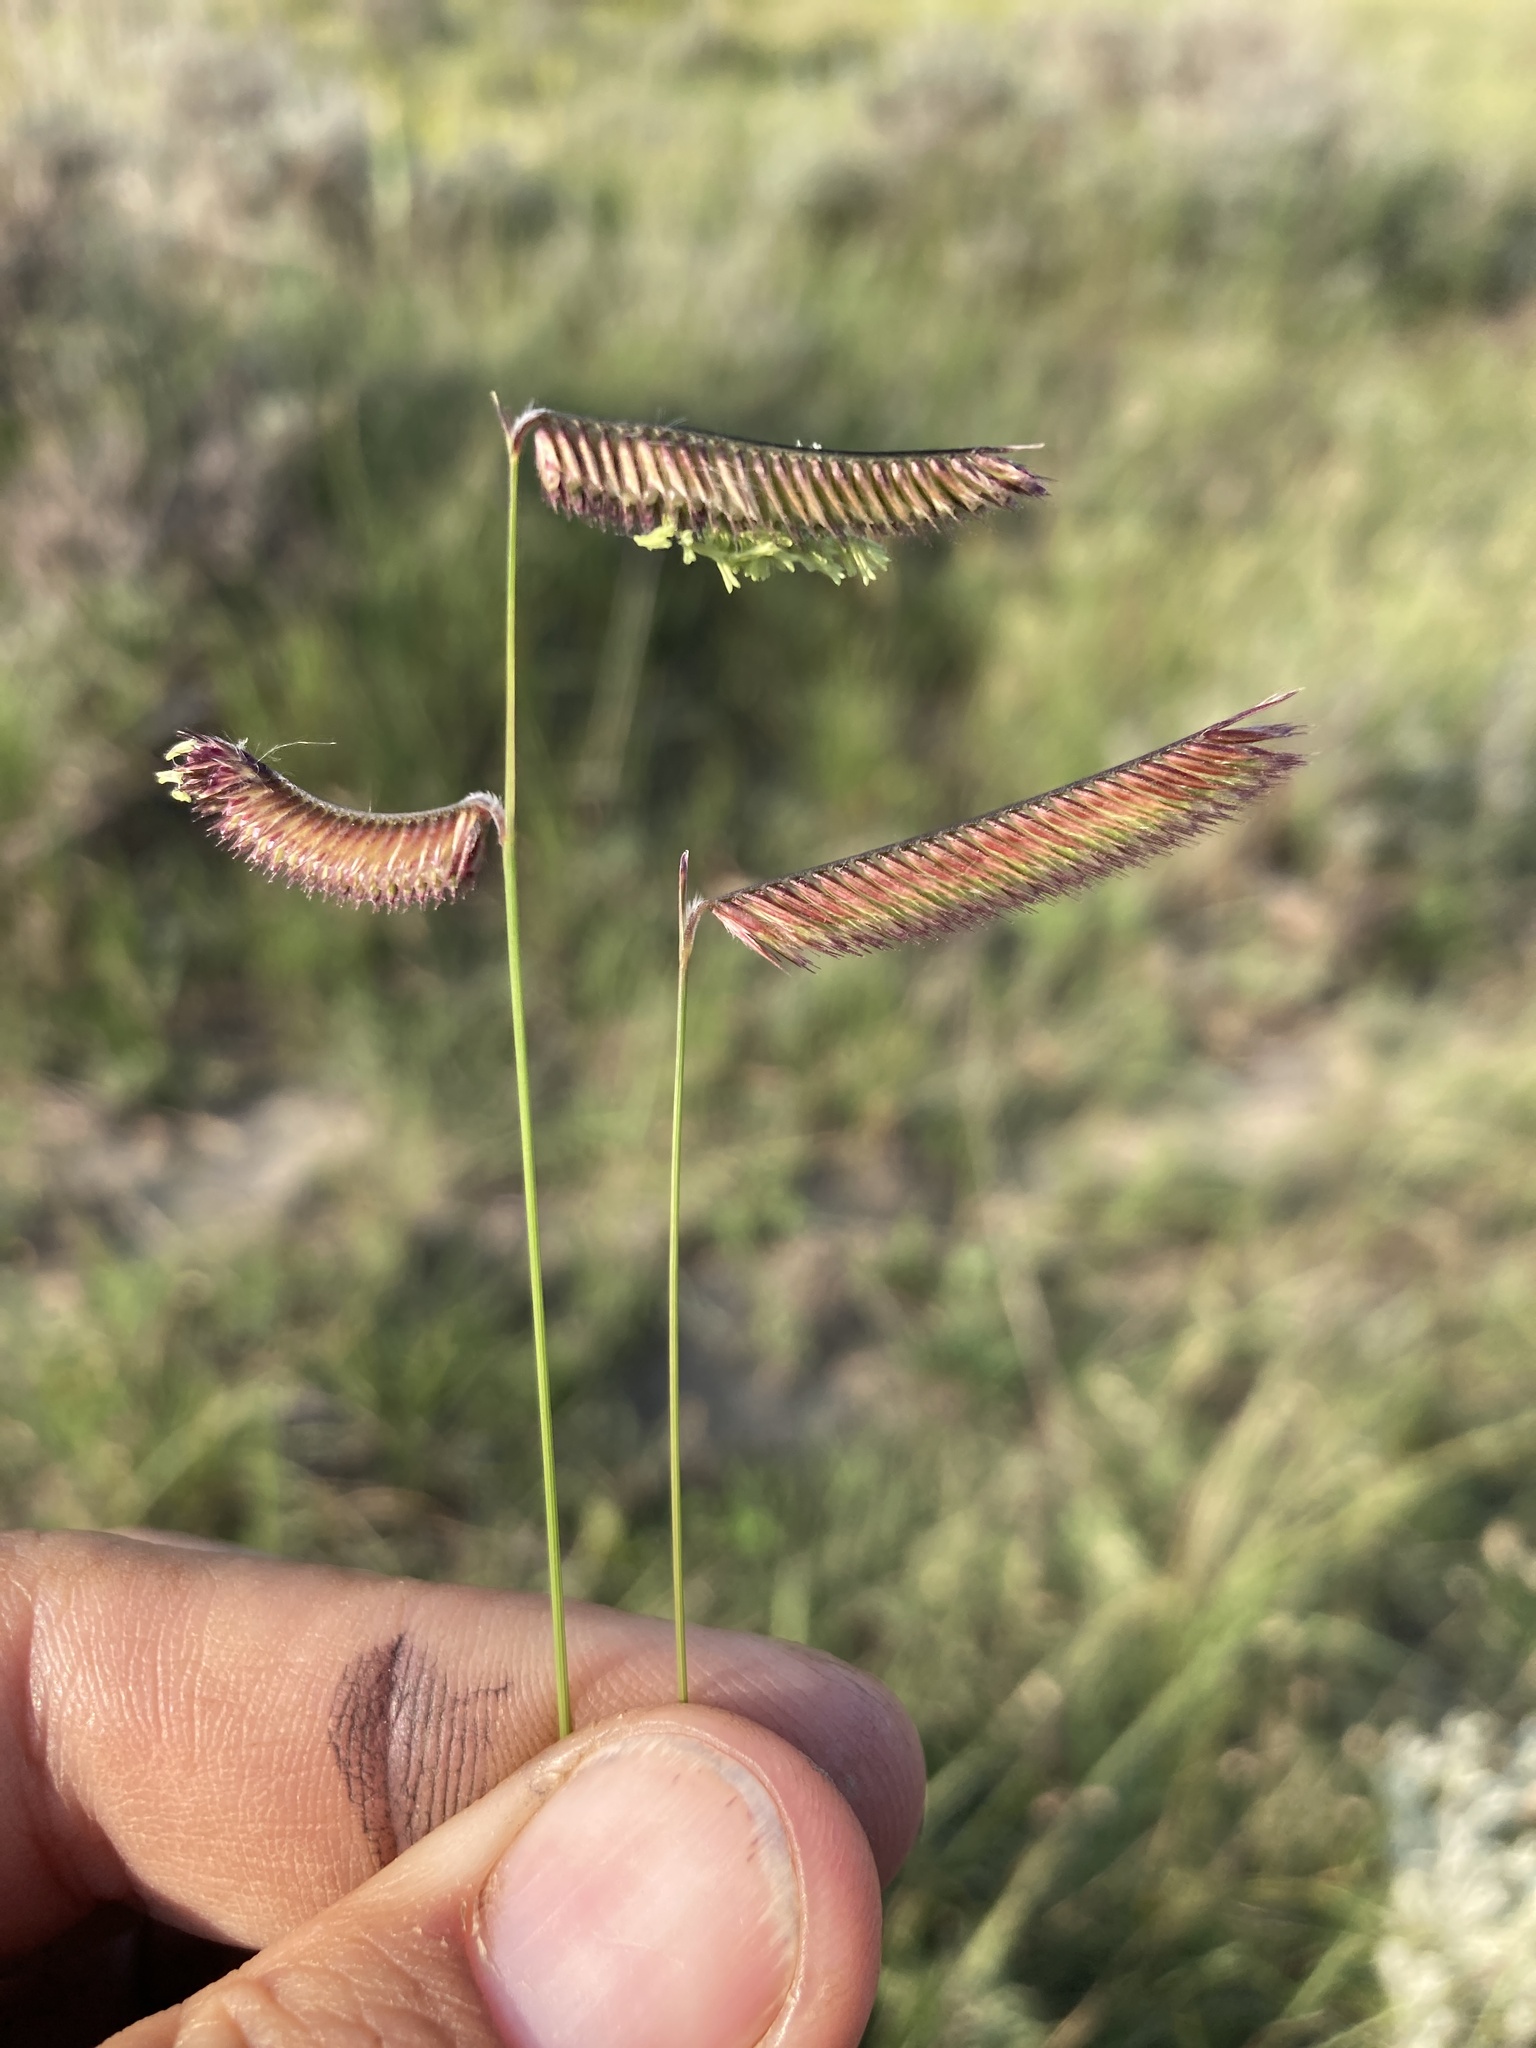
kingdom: Plantae
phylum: Tracheophyta
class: Liliopsida
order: Poales
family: Poaceae
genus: Bouteloua
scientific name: Bouteloua gracilis
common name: Blue grama
